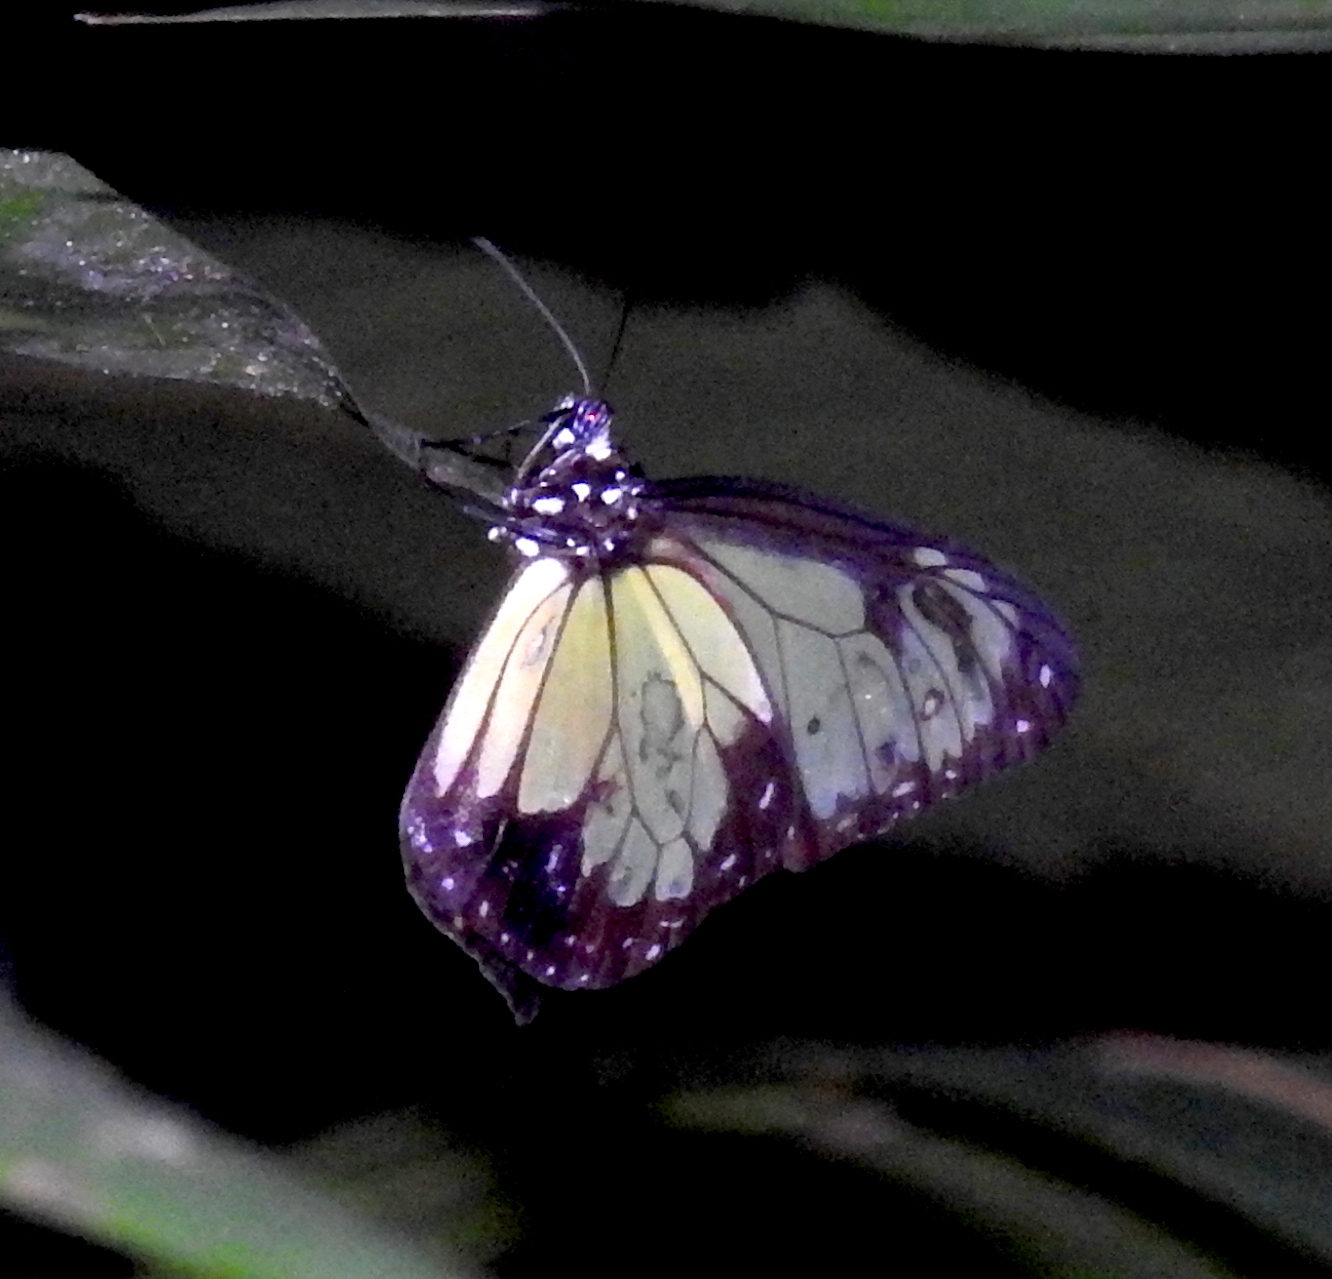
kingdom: Animalia
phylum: Arthropoda
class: Insecta
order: Lepidoptera
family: Nymphalidae
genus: Parantica
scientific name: Parantica schenkii
